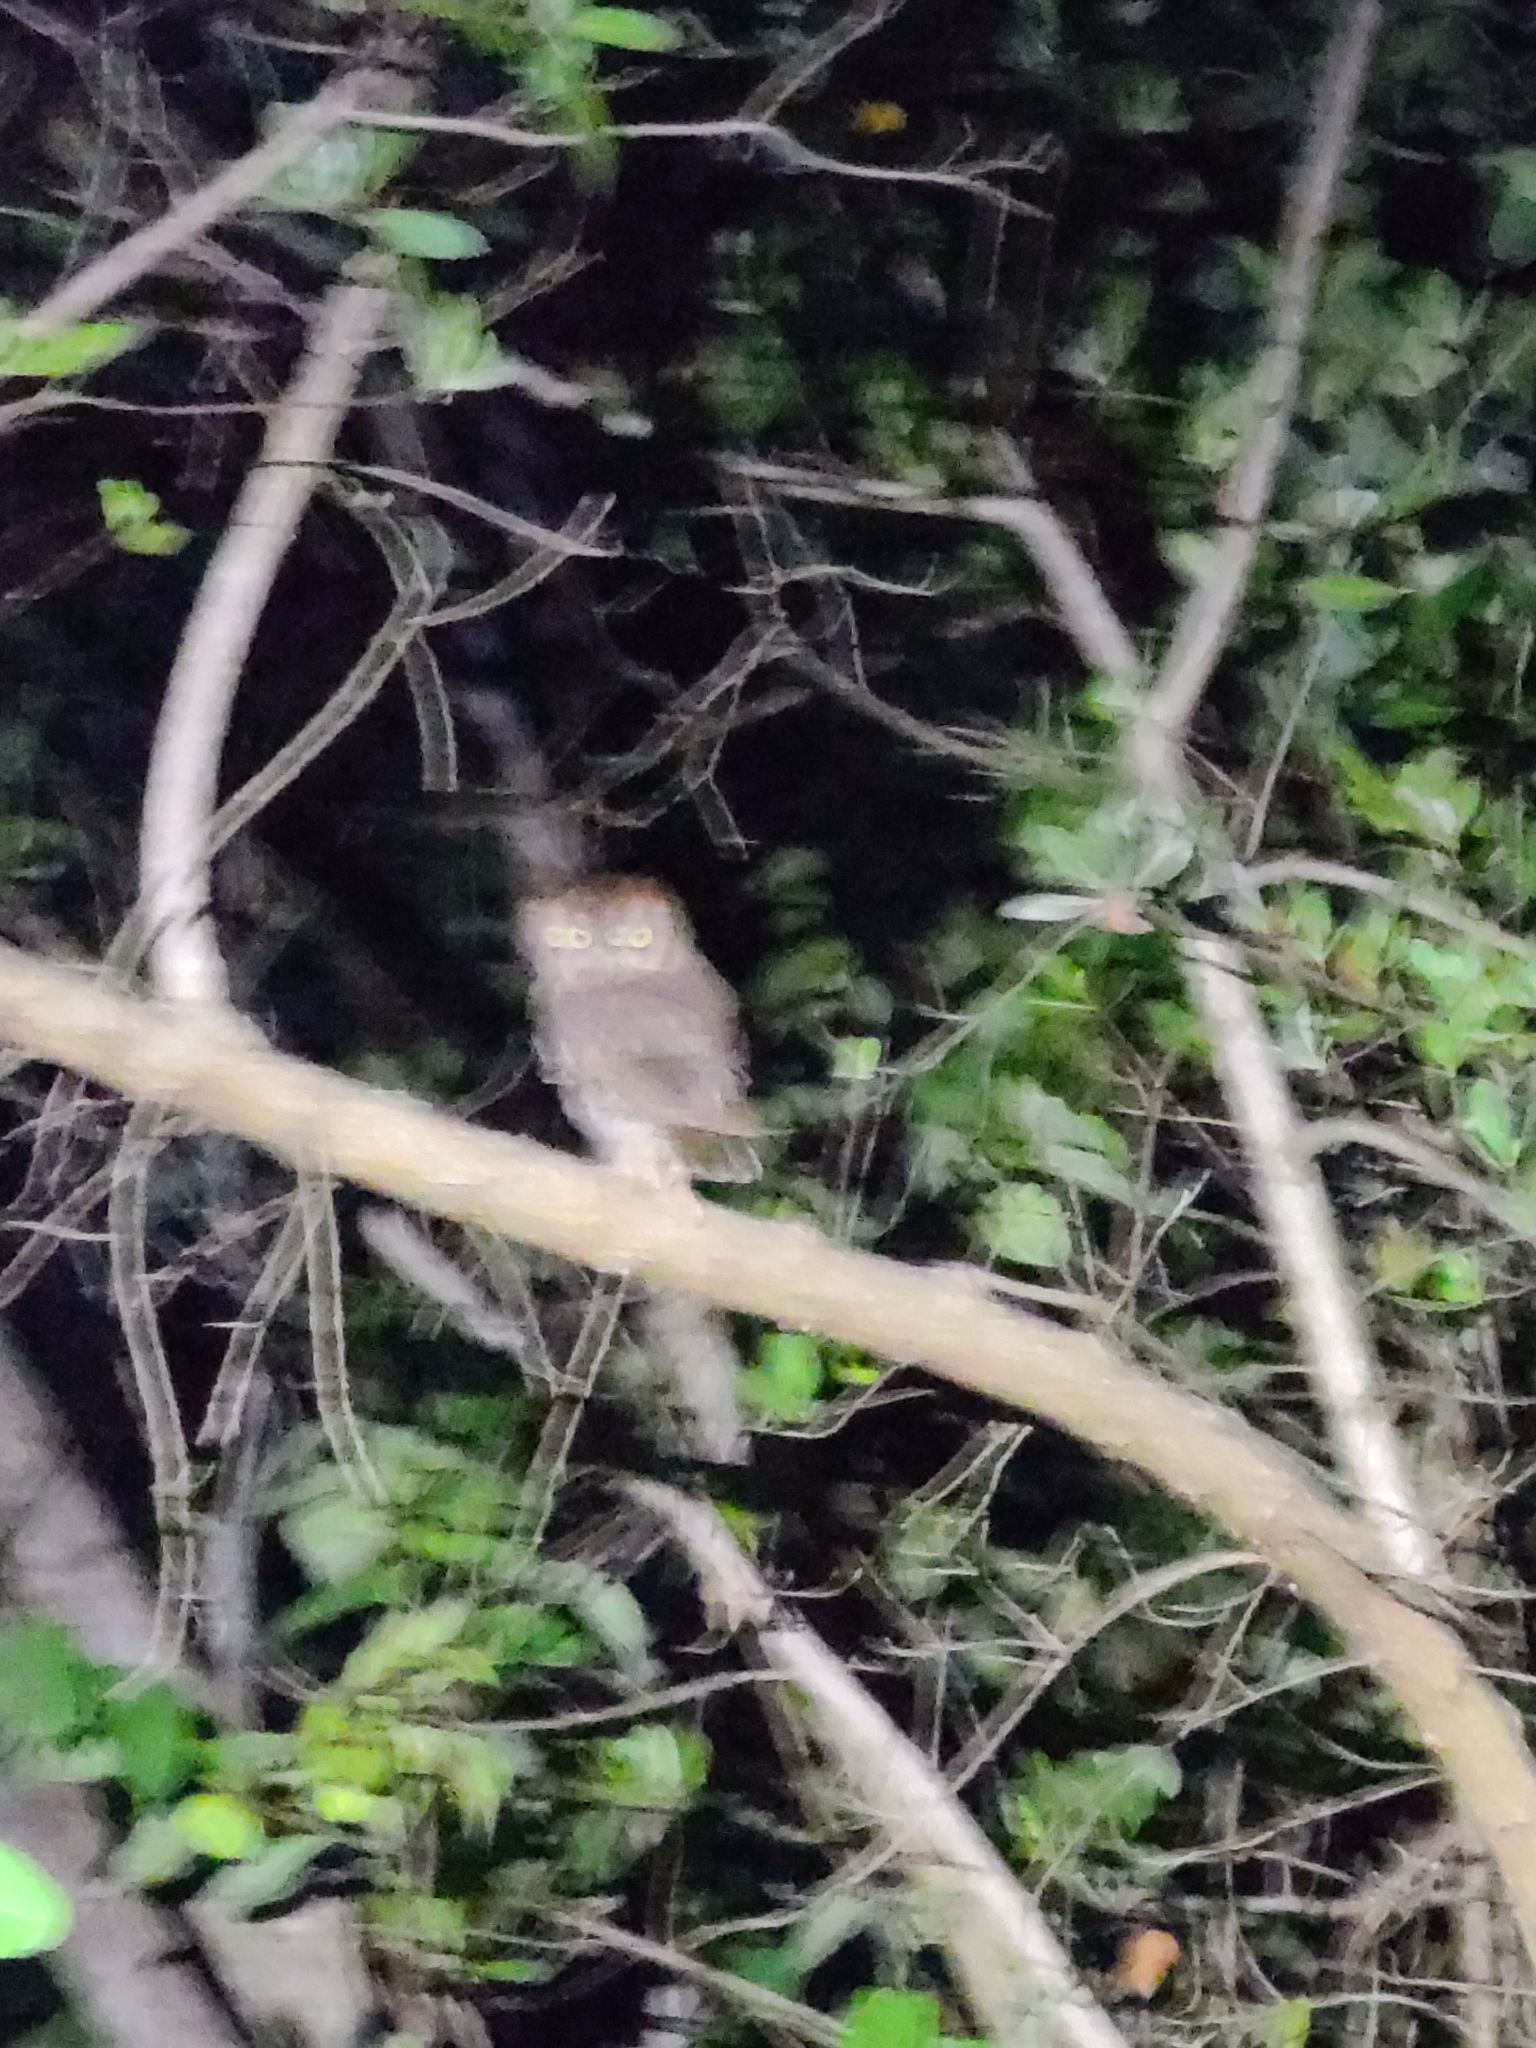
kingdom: Animalia
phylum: Chordata
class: Aves
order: Strigiformes
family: Strigidae
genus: Megascops
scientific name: Megascops asio
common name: Eastern screech-owl
